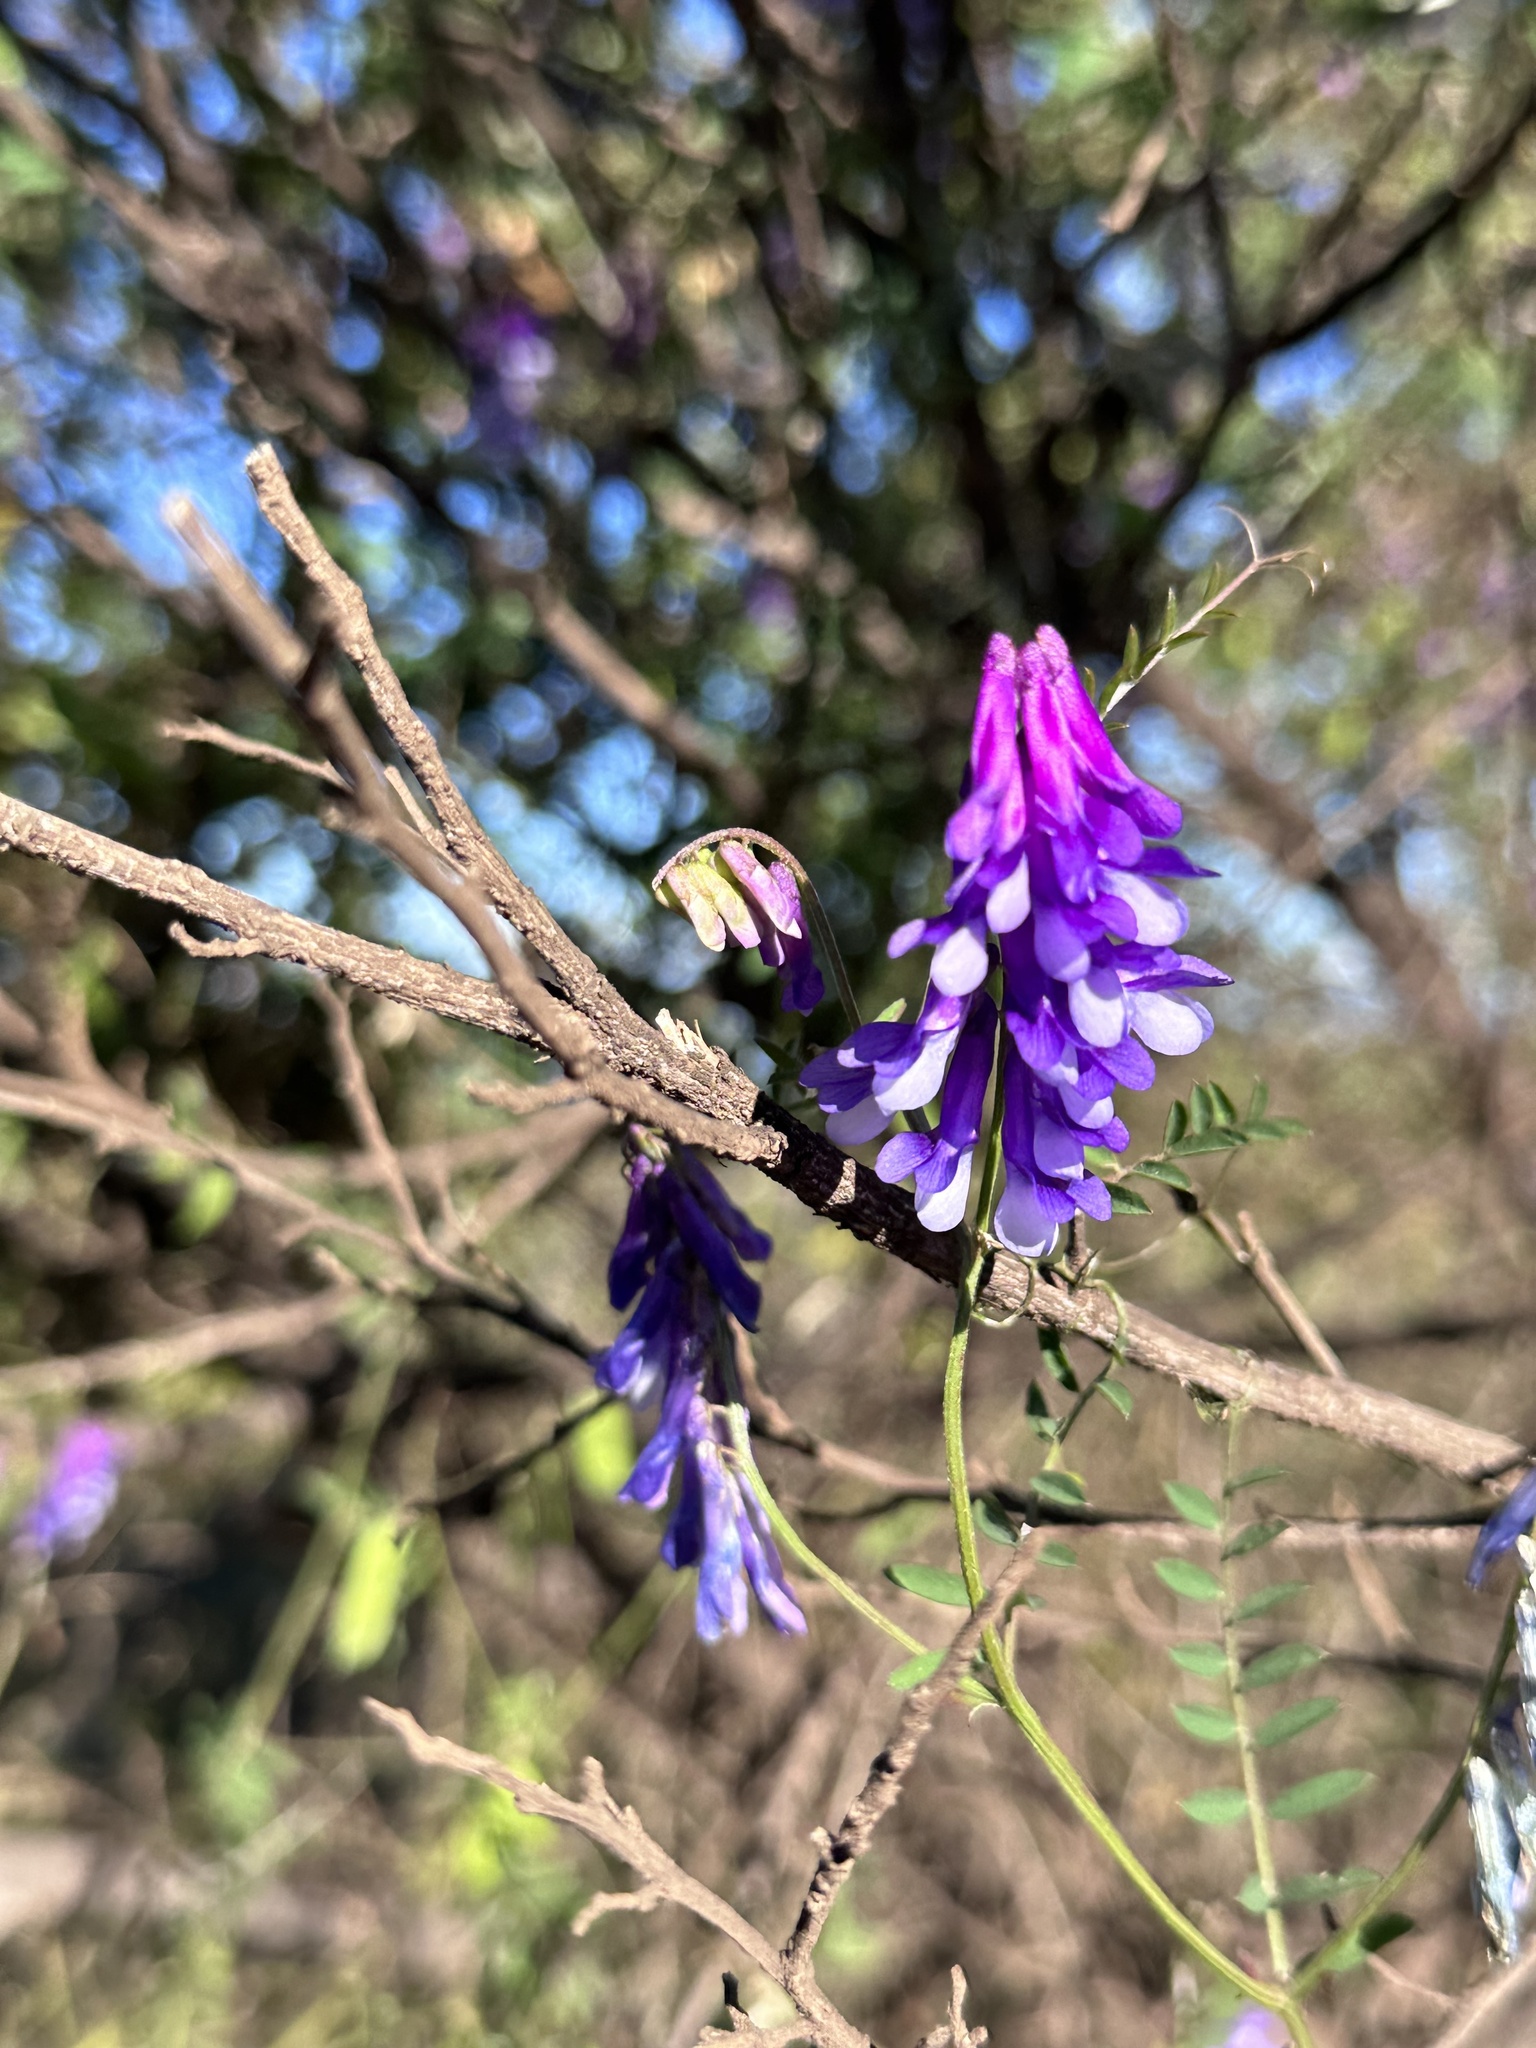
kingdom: Plantae
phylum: Tracheophyta
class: Magnoliopsida
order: Fabales
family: Fabaceae
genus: Vicia
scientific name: Vicia villosa
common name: Fodder vetch
